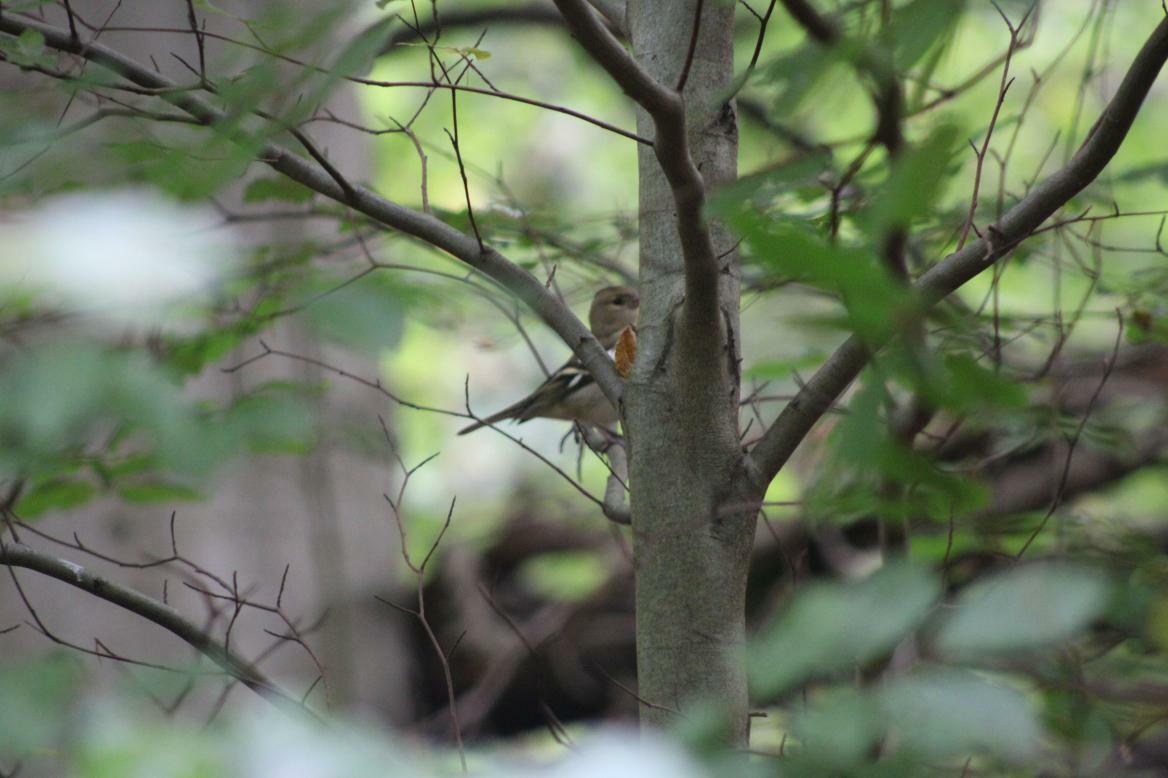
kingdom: Animalia
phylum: Chordata
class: Aves
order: Passeriformes
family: Fringillidae
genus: Fringilla
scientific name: Fringilla coelebs
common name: Common chaffinch
